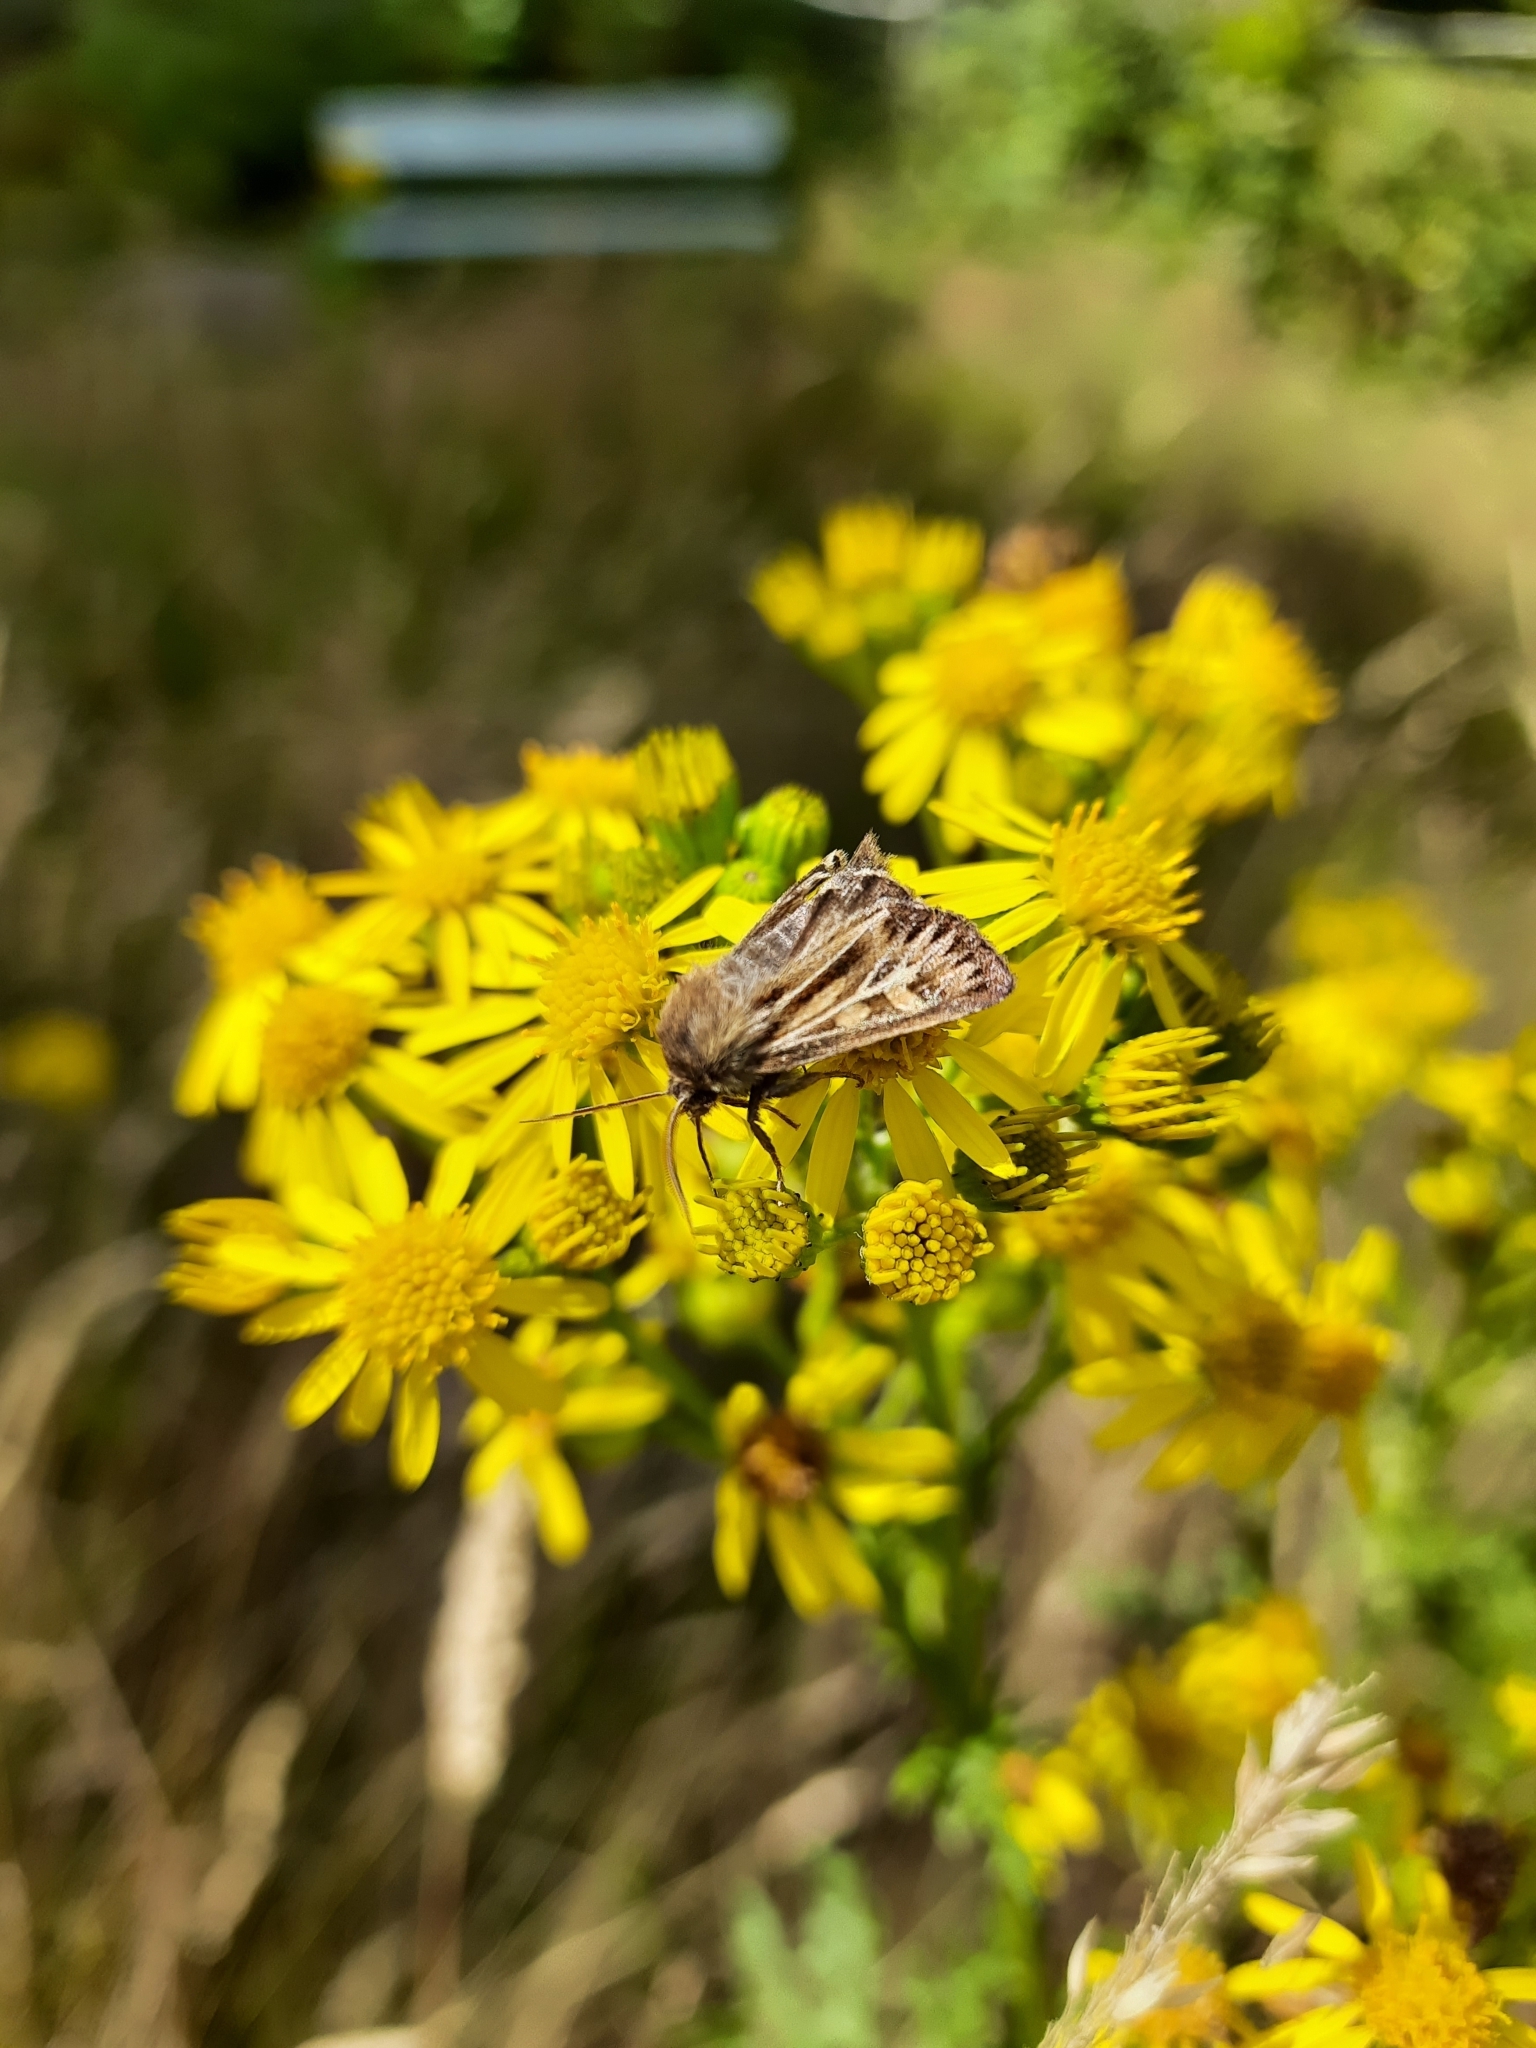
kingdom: Animalia
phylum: Arthropoda
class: Insecta
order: Lepidoptera
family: Noctuidae
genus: Cerapteryx
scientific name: Cerapteryx graminis
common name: Antler moth
